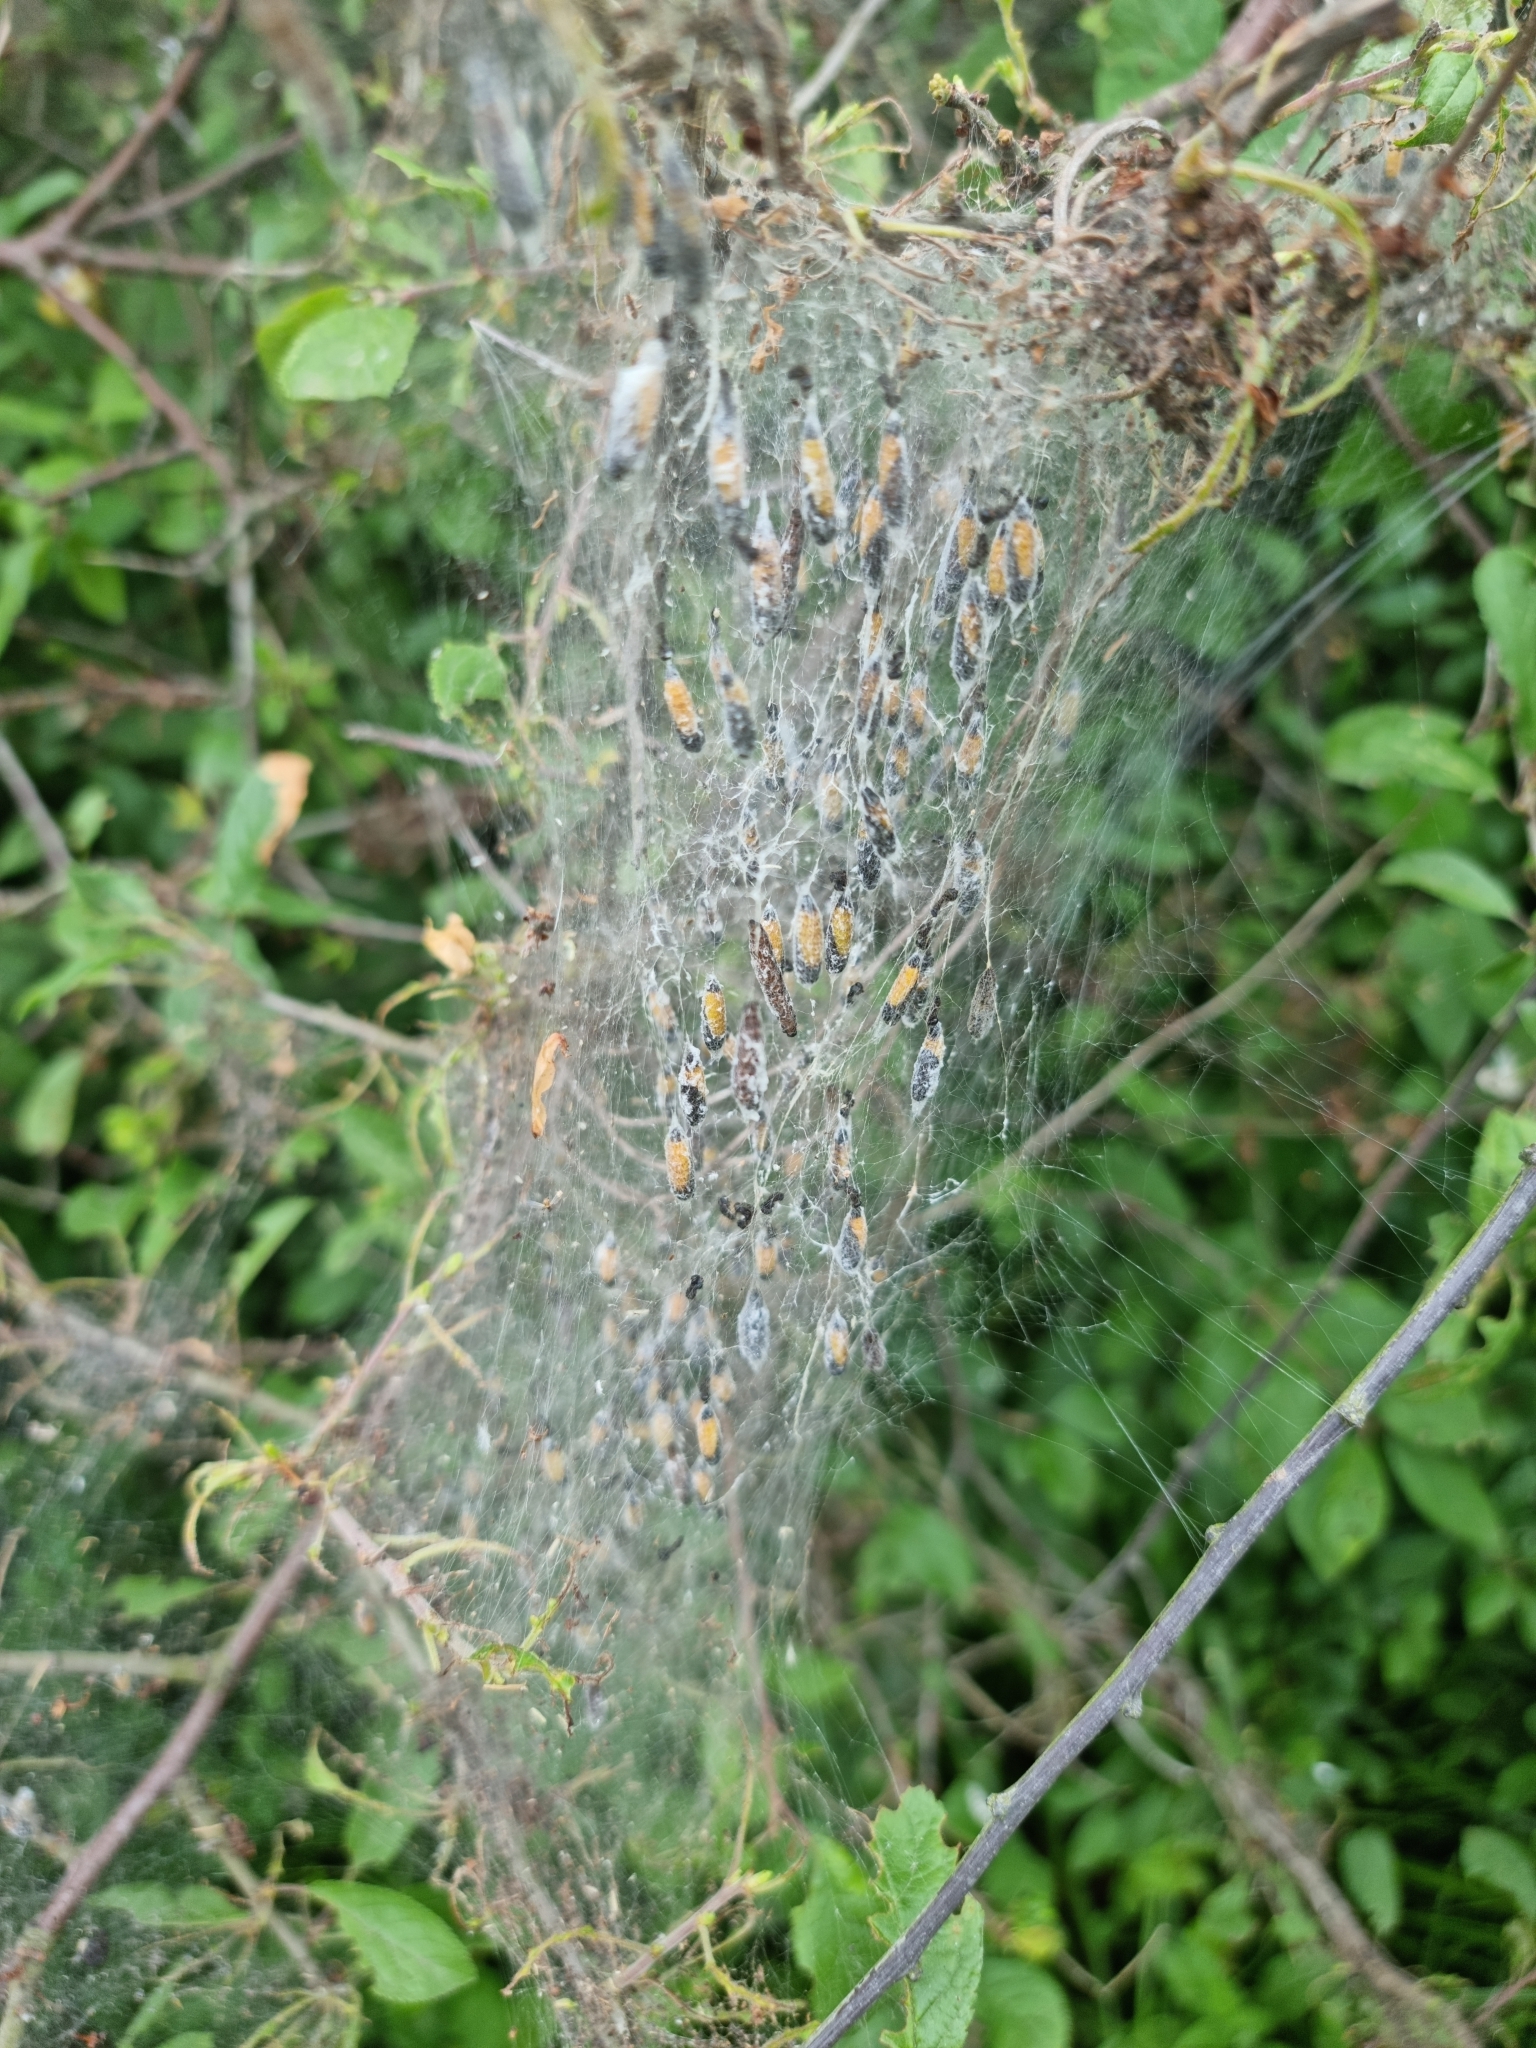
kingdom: Animalia
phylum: Arthropoda
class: Insecta
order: Lepidoptera
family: Yponomeutidae
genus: Yponomeuta
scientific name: Yponomeuta padella
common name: Orchard ermine
